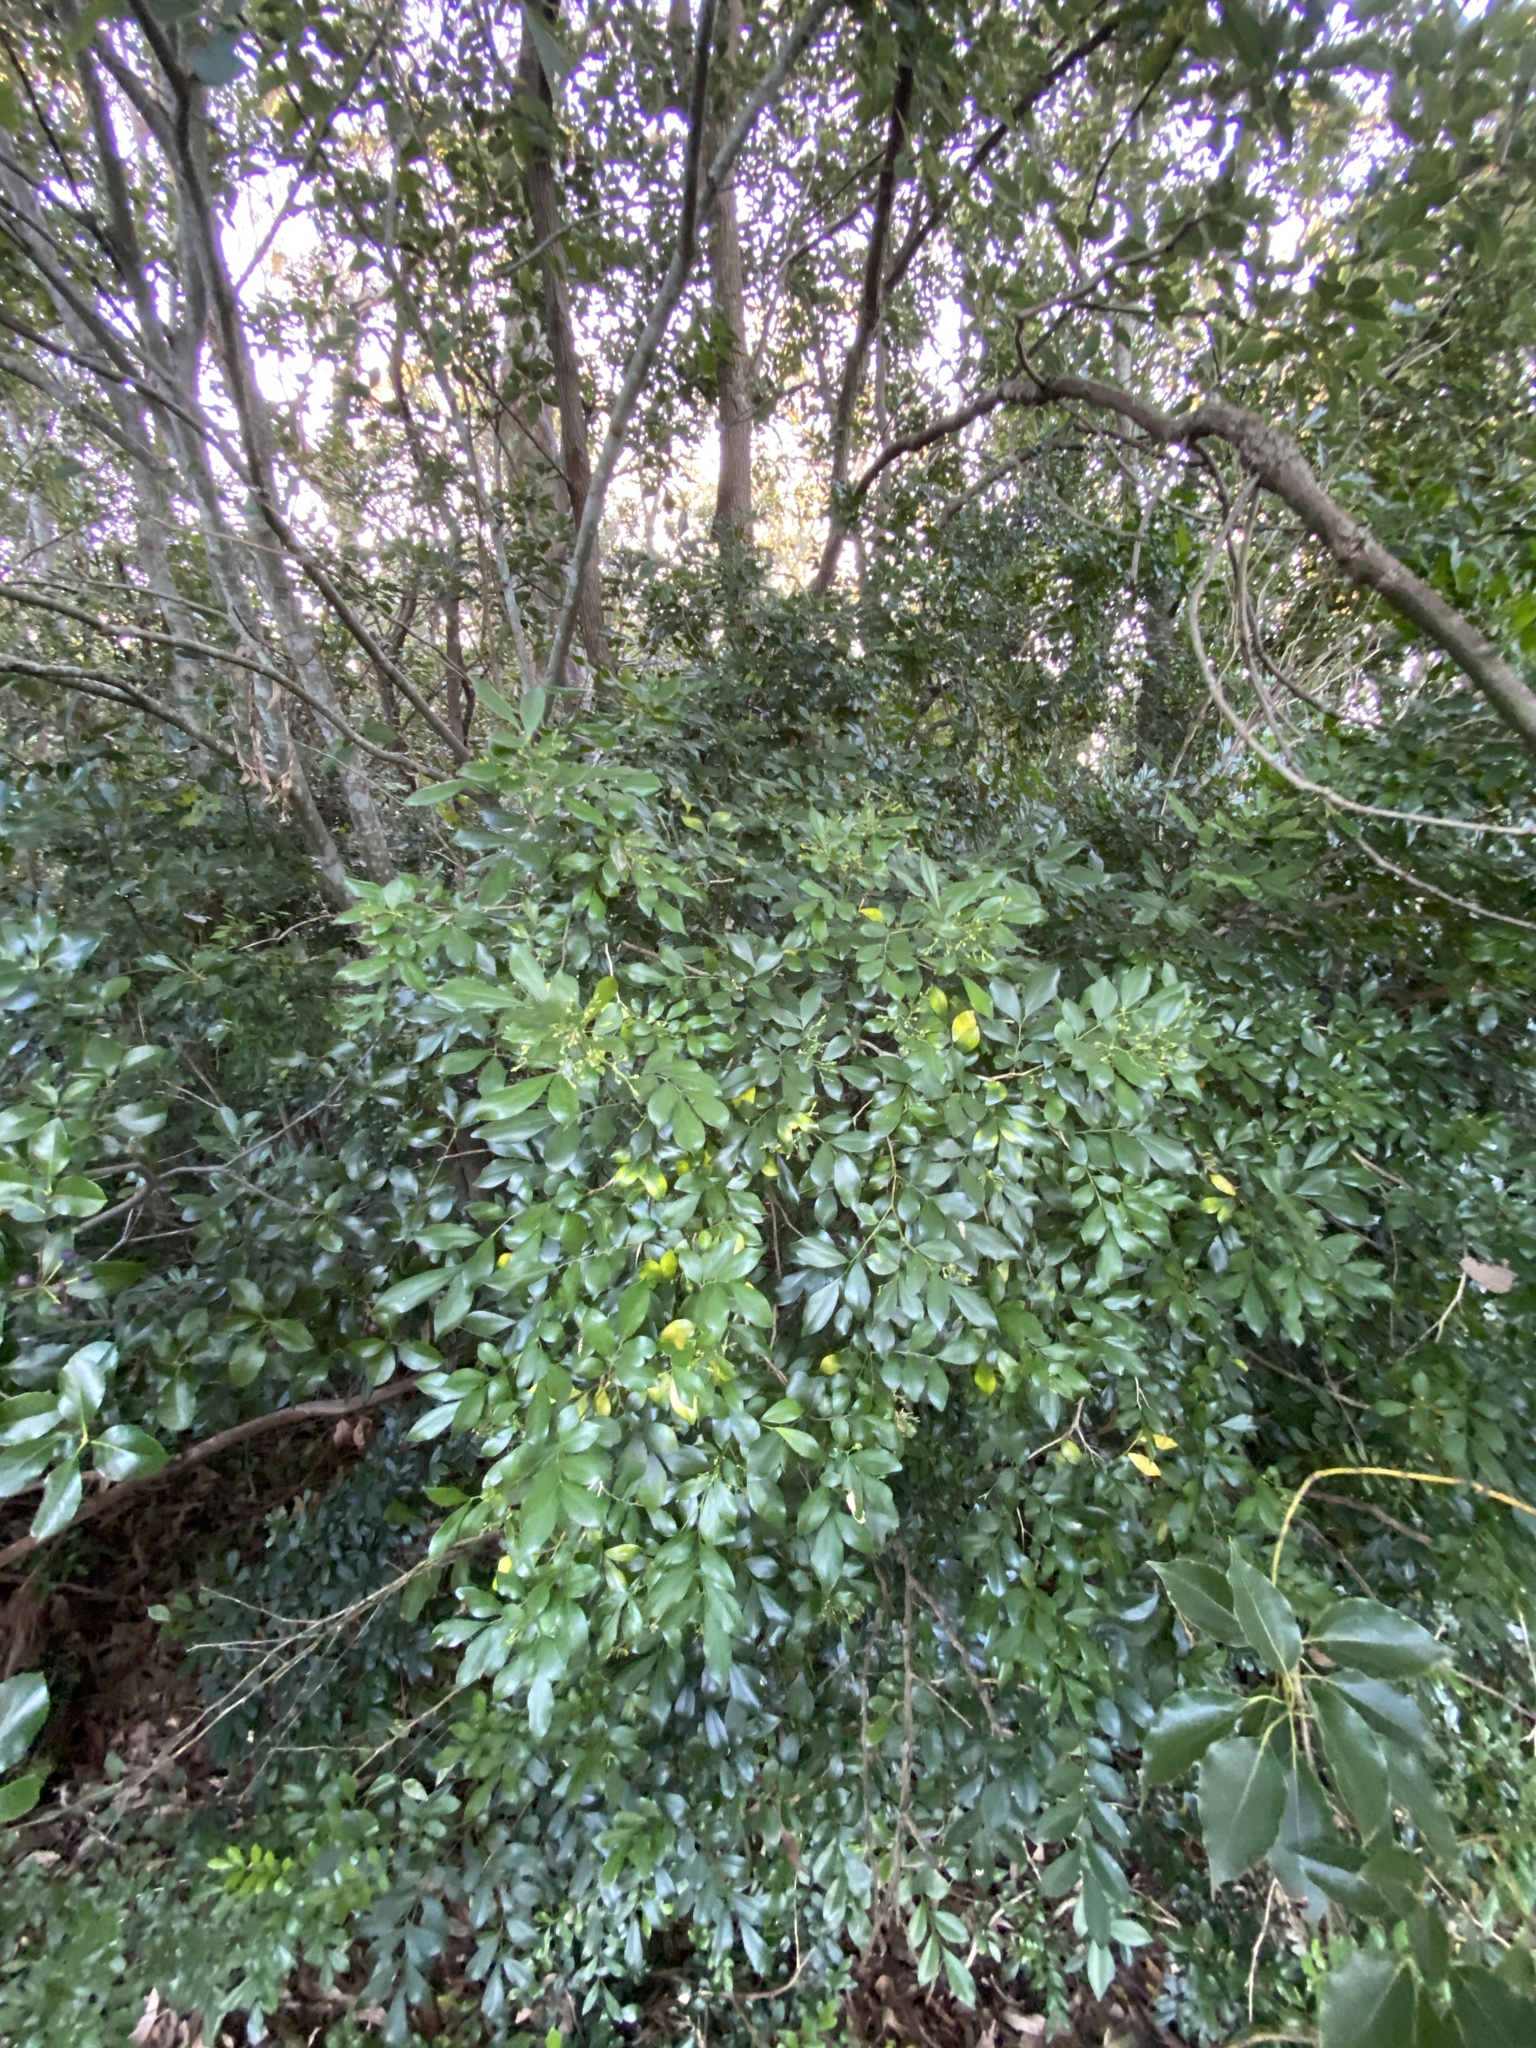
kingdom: Plantae
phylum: Tracheophyta
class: Magnoliopsida
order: Sapindales
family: Rutaceae
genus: Murraya
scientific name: Murraya paniculata
